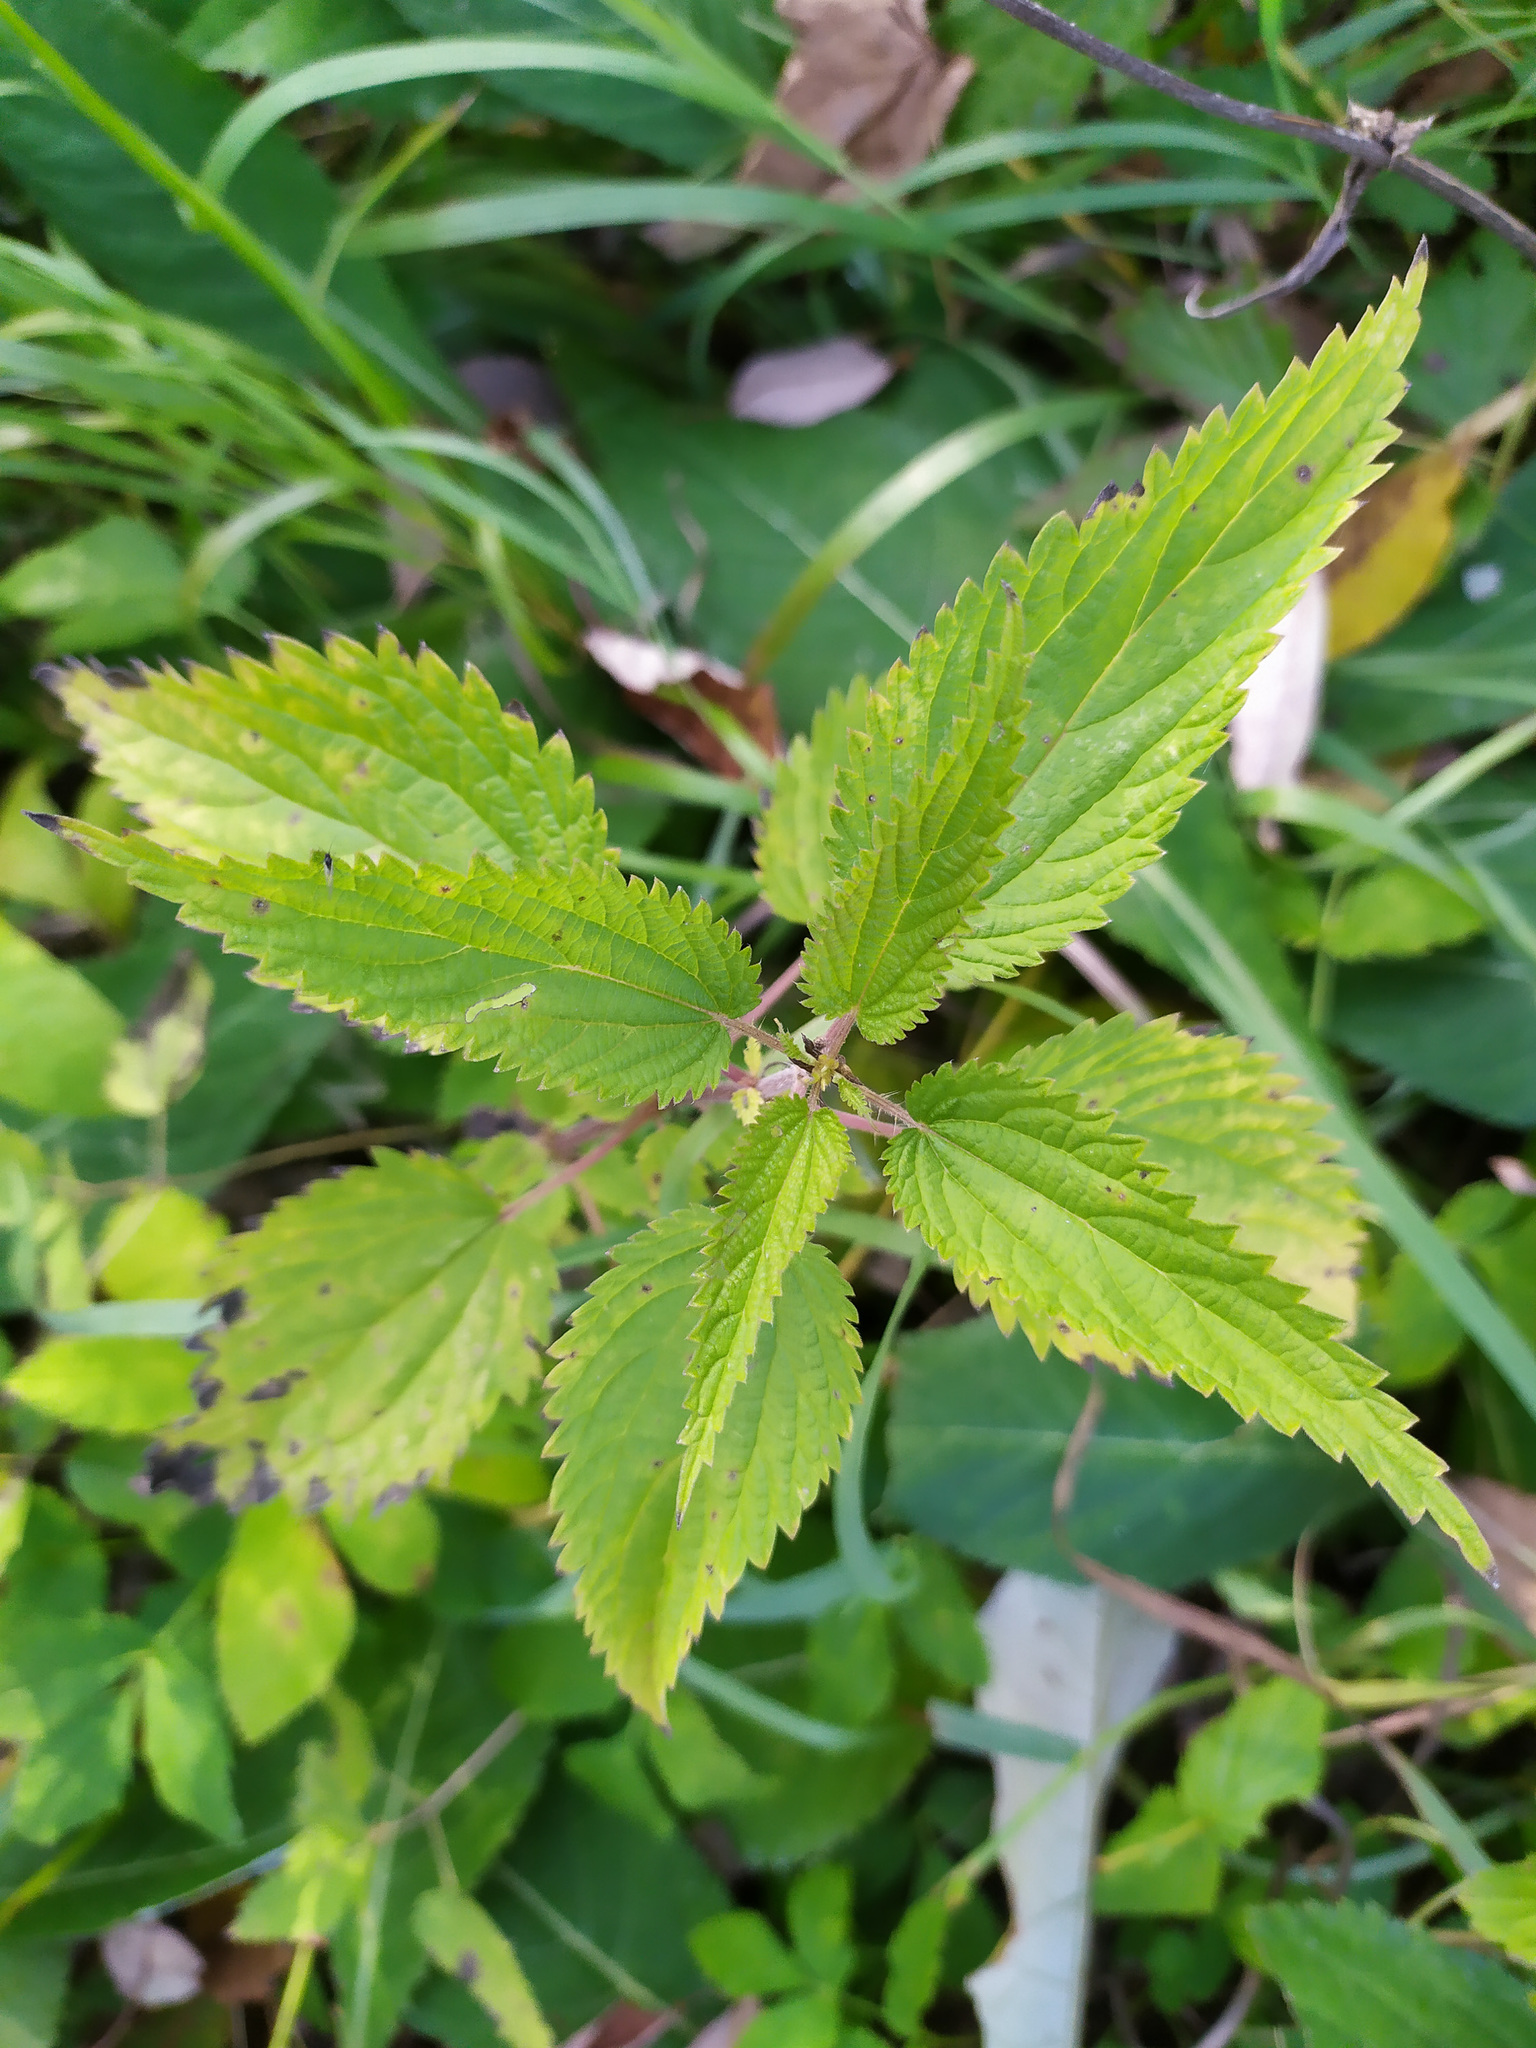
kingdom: Plantae
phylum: Tracheophyta
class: Magnoliopsida
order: Rosales
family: Urticaceae
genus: Urtica
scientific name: Urtica dioica
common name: Common nettle
